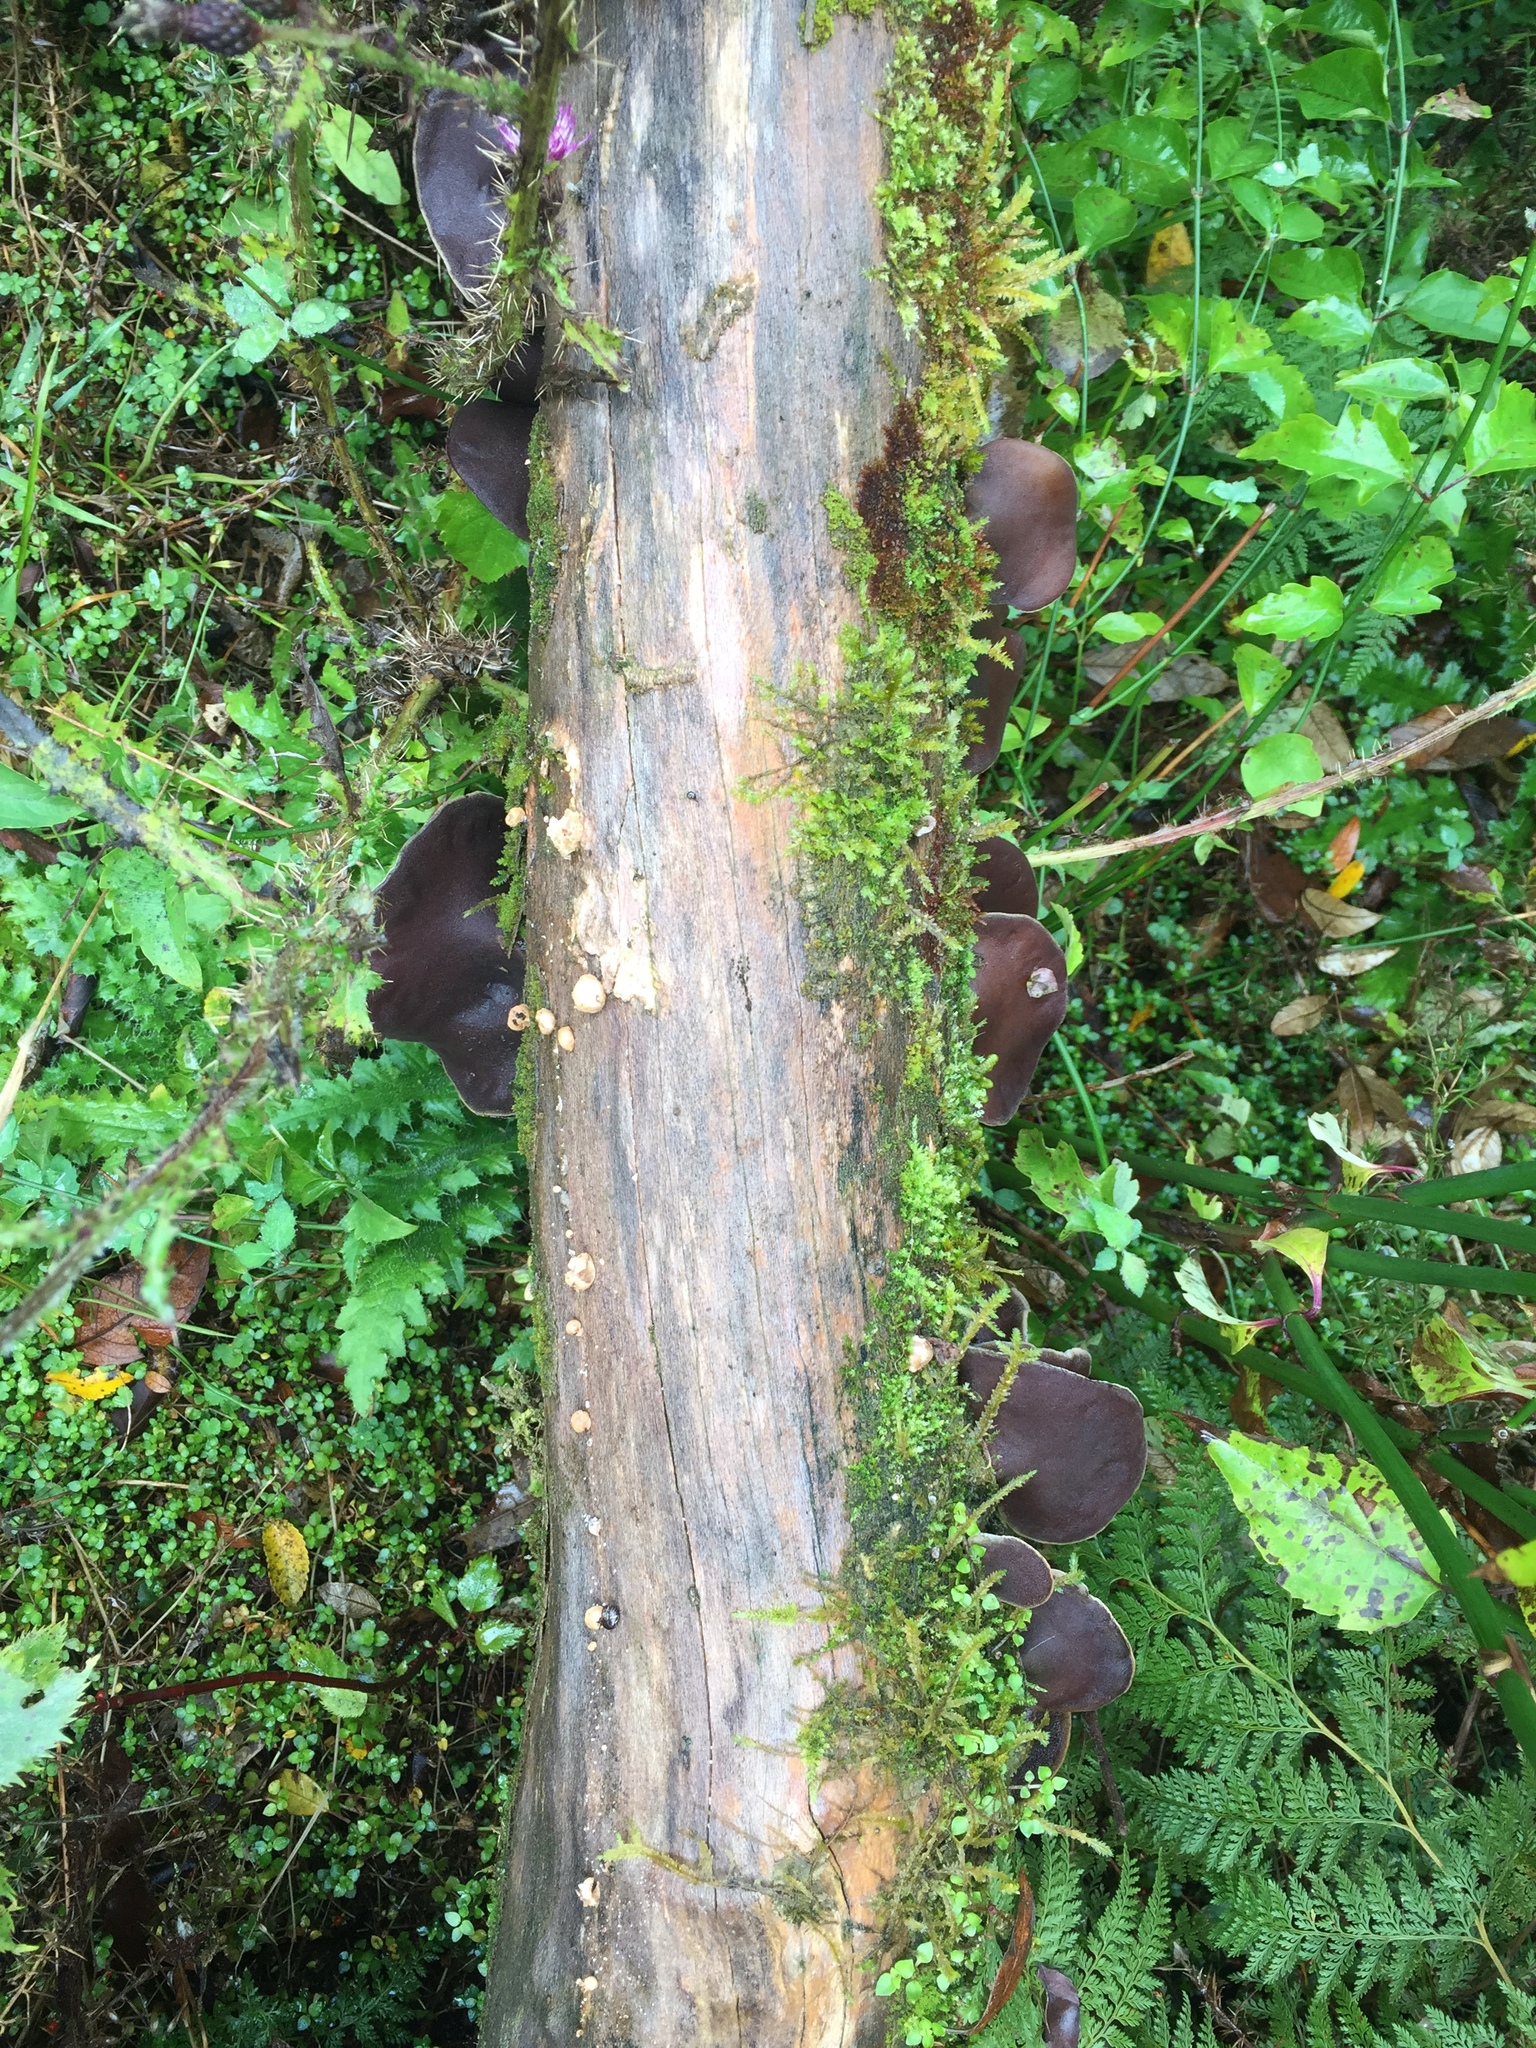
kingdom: Fungi
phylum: Basidiomycota
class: Agaricomycetes
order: Auriculariales
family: Auriculariaceae
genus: Auricularia
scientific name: Auricularia cornea
